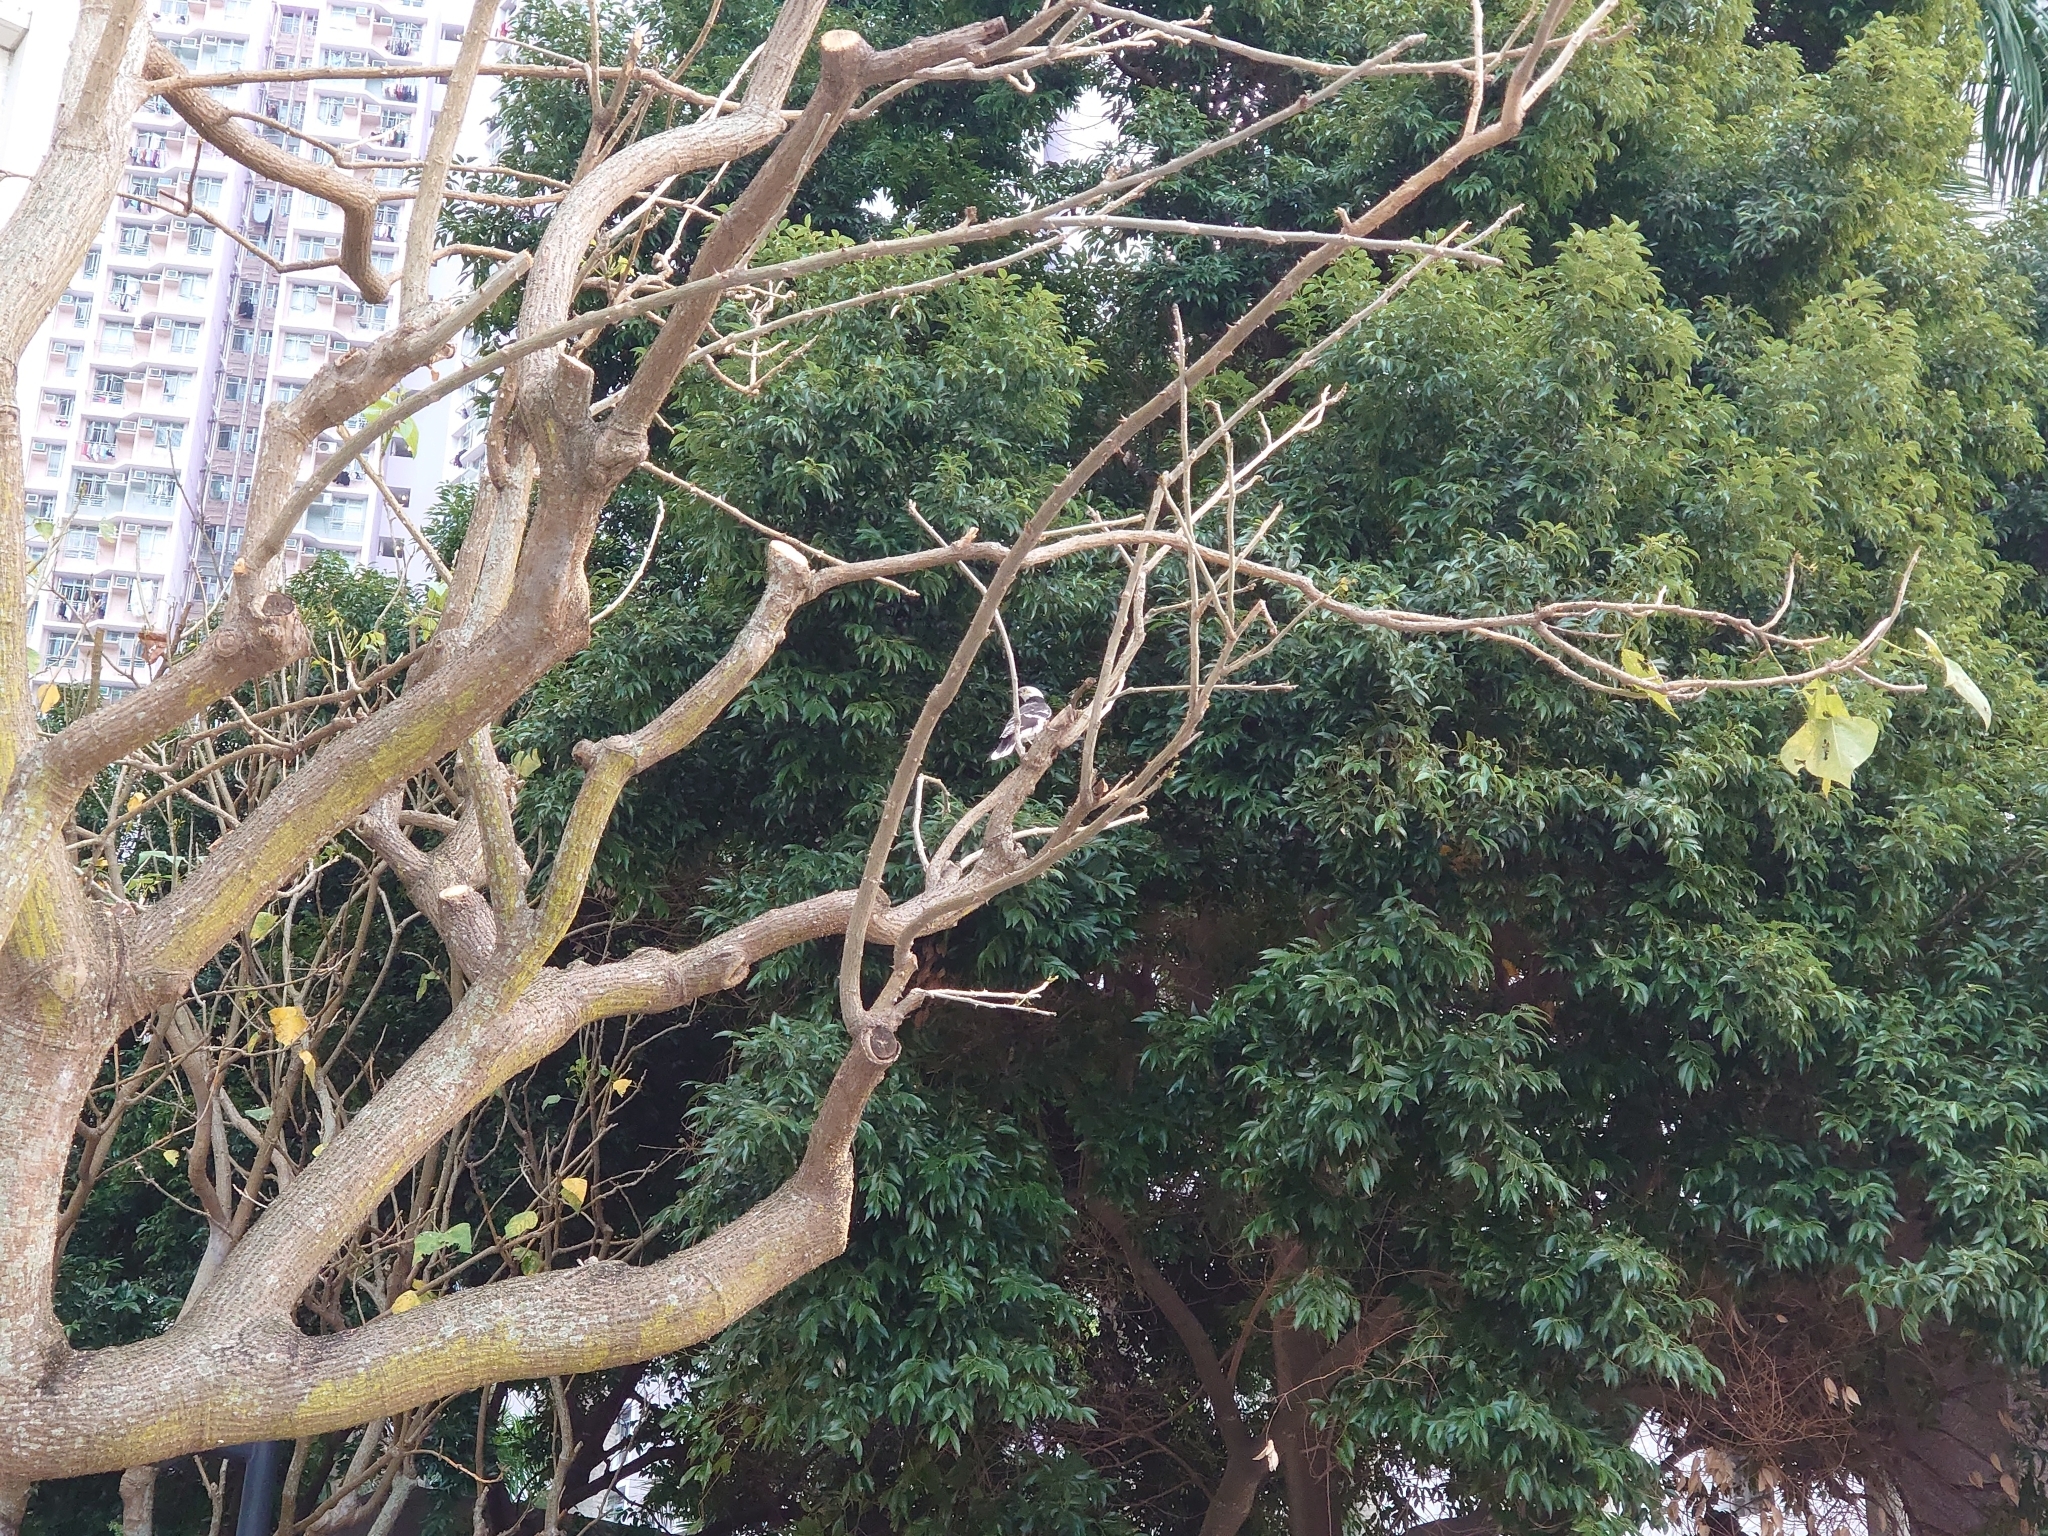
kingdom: Animalia
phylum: Chordata
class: Aves
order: Passeriformes
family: Sturnidae
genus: Gracupica
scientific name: Gracupica nigricollis
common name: Black-collared starling
